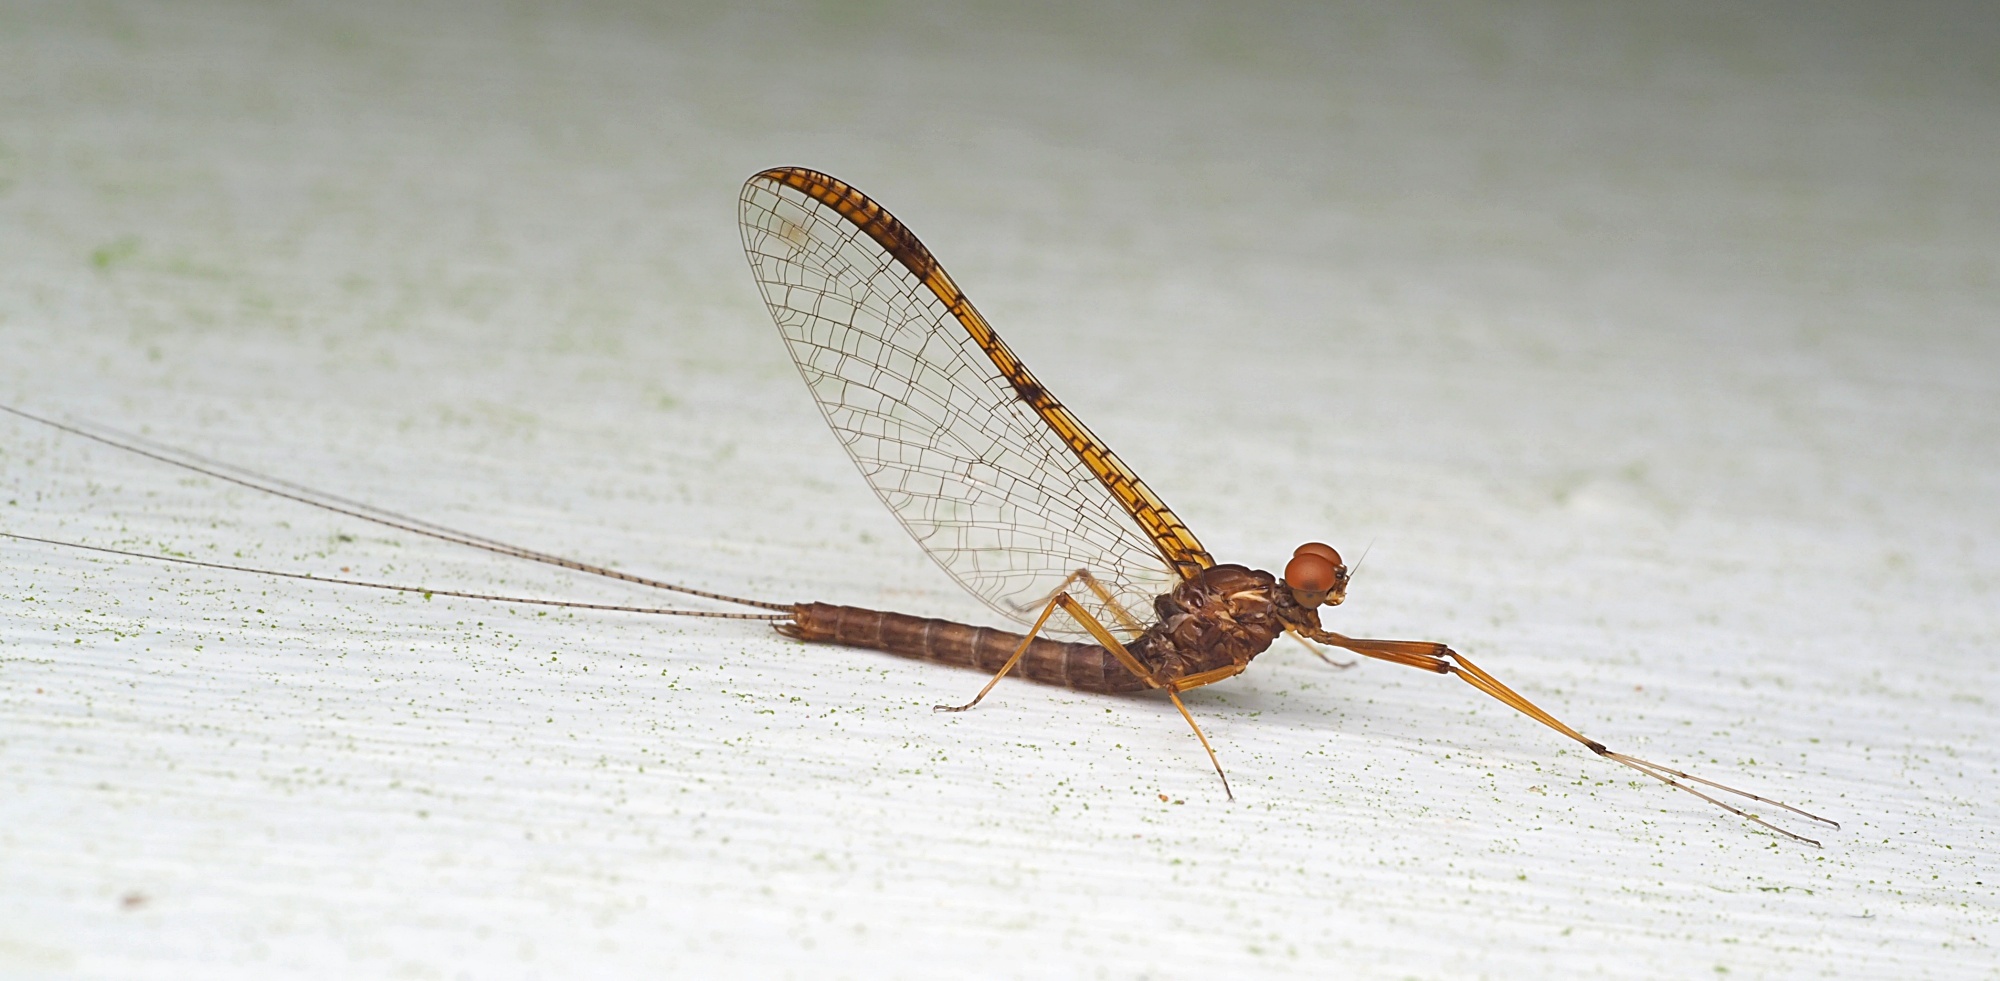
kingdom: Animalia
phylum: Arthropoda
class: Insecta
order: Ephemeroptera
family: Leptophlebiidae
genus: Zephlebia
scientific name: Zephlebia dentata
